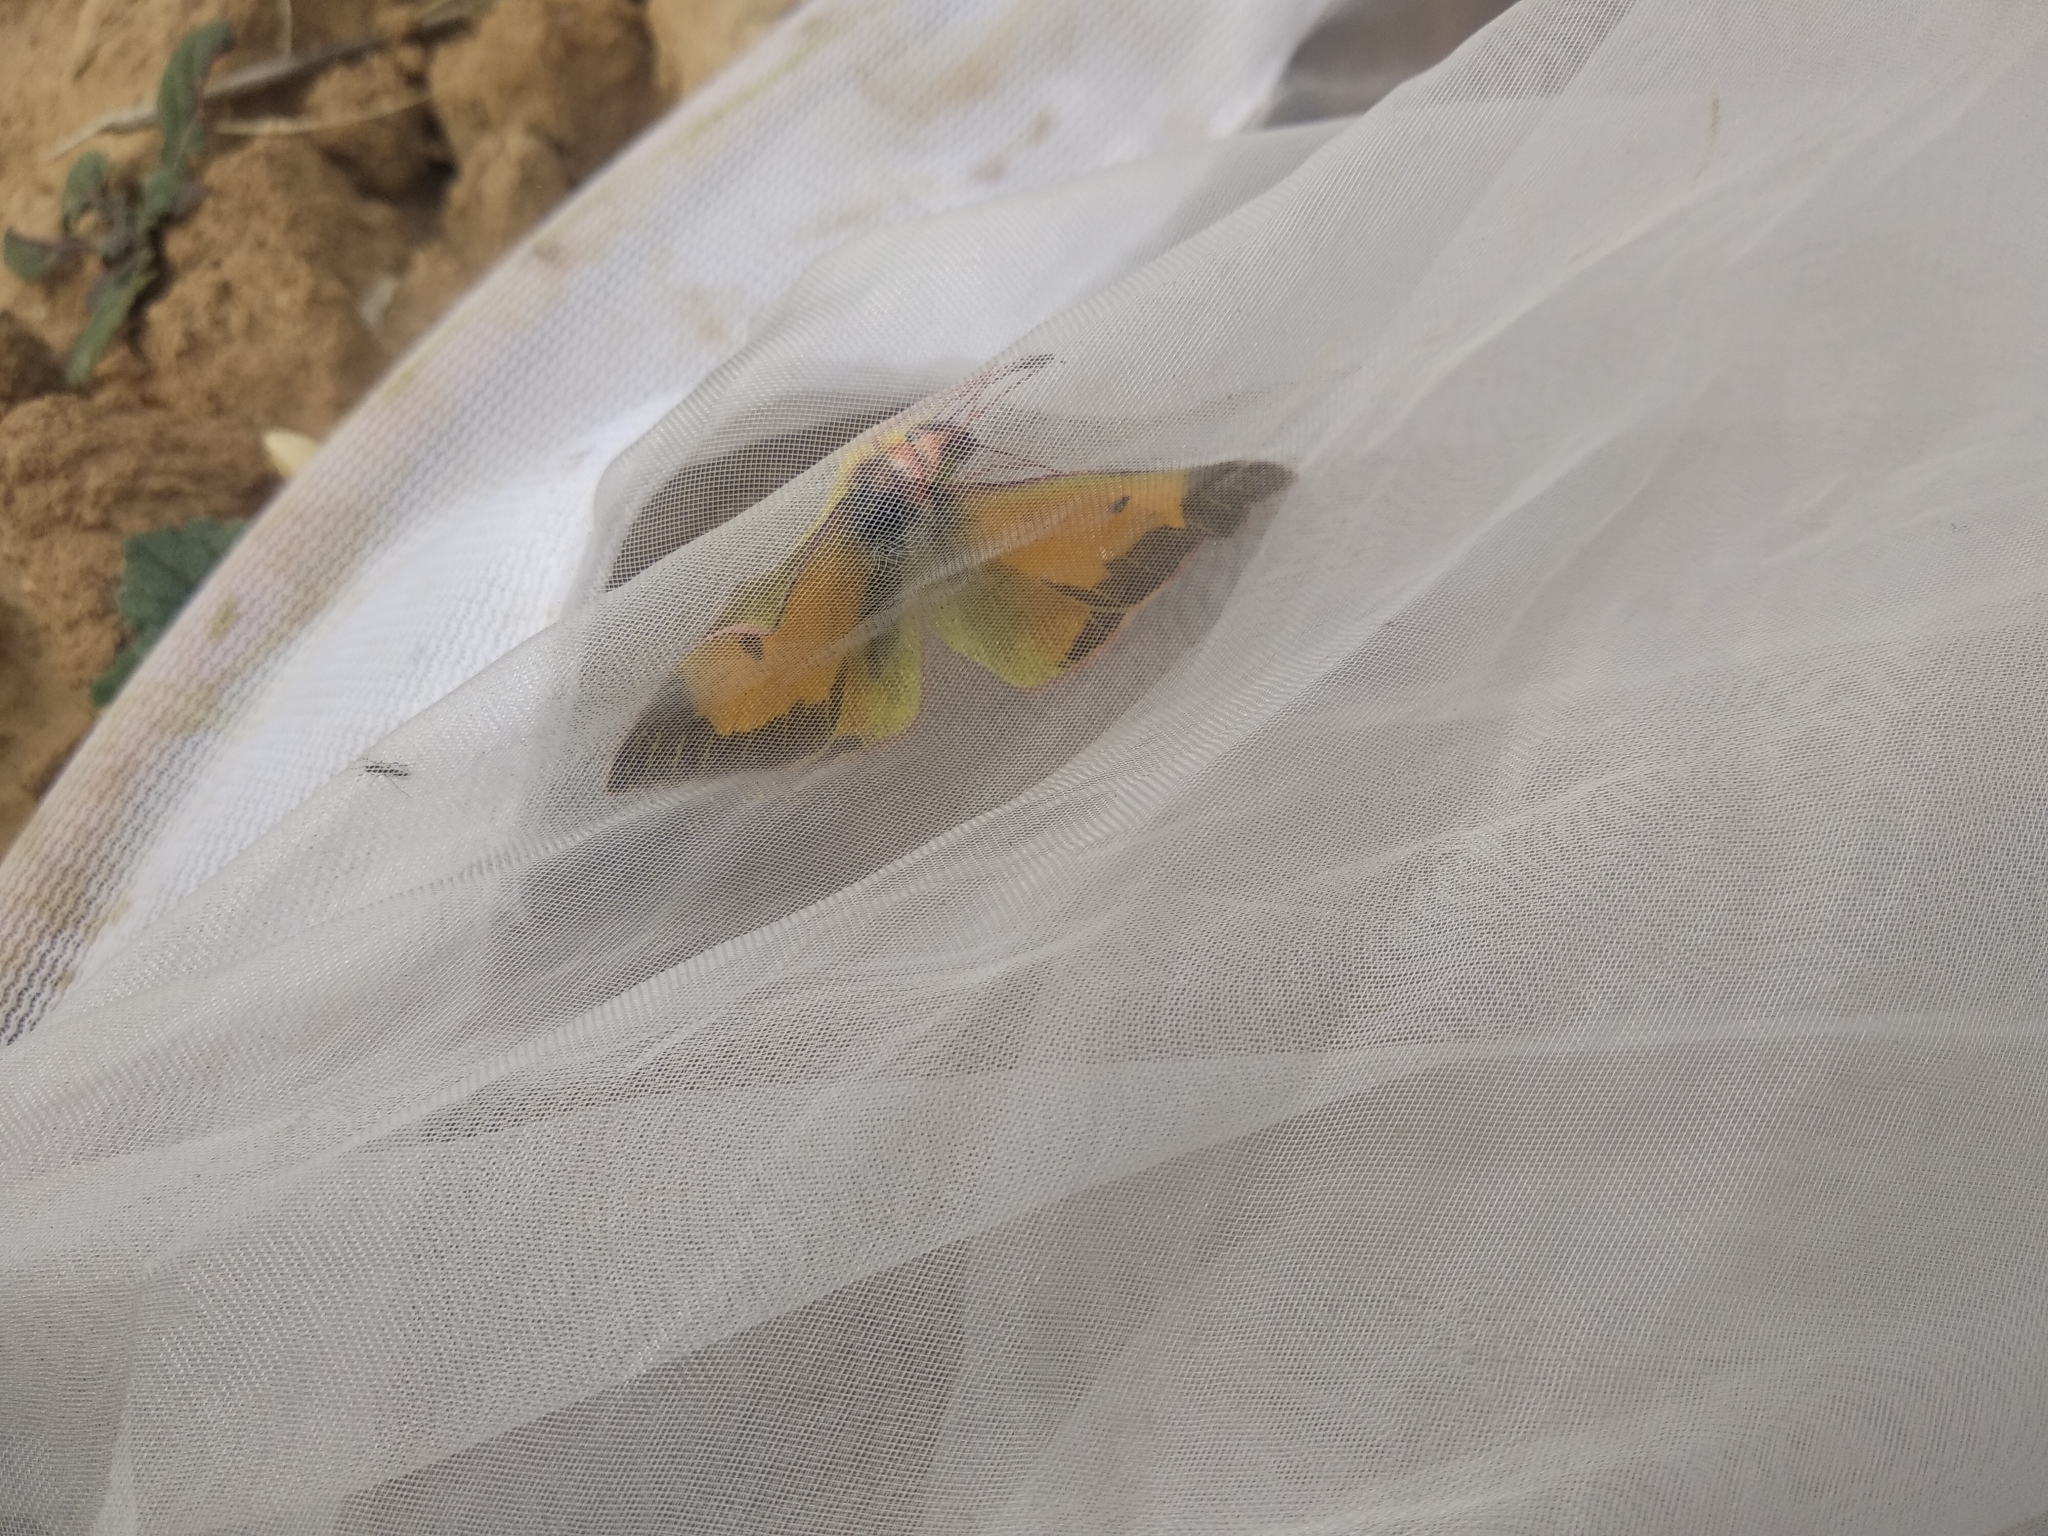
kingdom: Animalia
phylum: Arthropoda
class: Insecta
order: Lepidoptera
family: Pieridae
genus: Colias
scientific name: Colias croceus
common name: Clouded yellow
